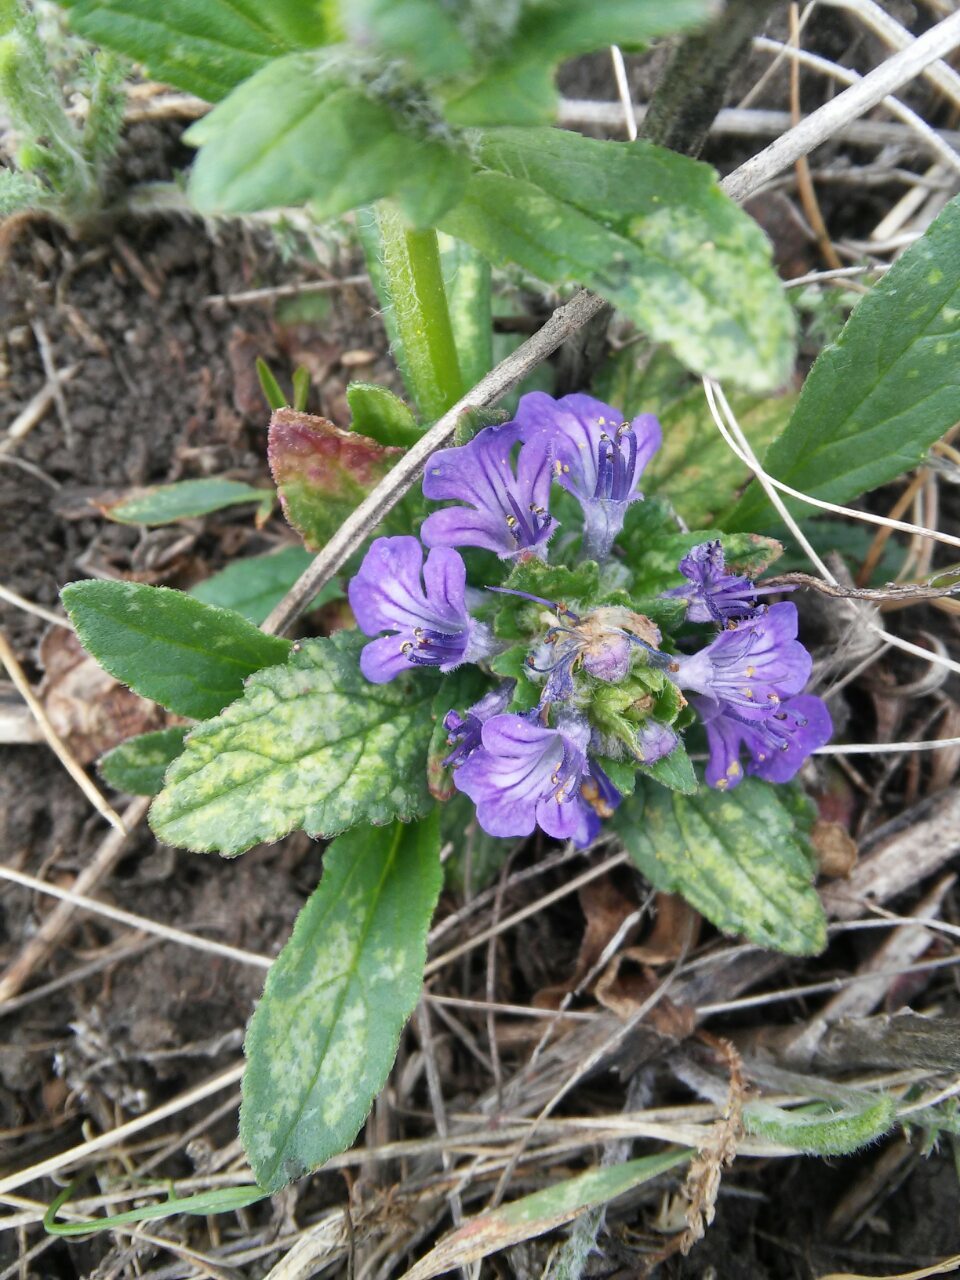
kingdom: Plantae
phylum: Tracheophyta
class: Magnoliopsida
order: Lamiales
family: Lamiaceae
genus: Ajuga
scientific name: Ajuga genevensis
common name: Blue bugle
